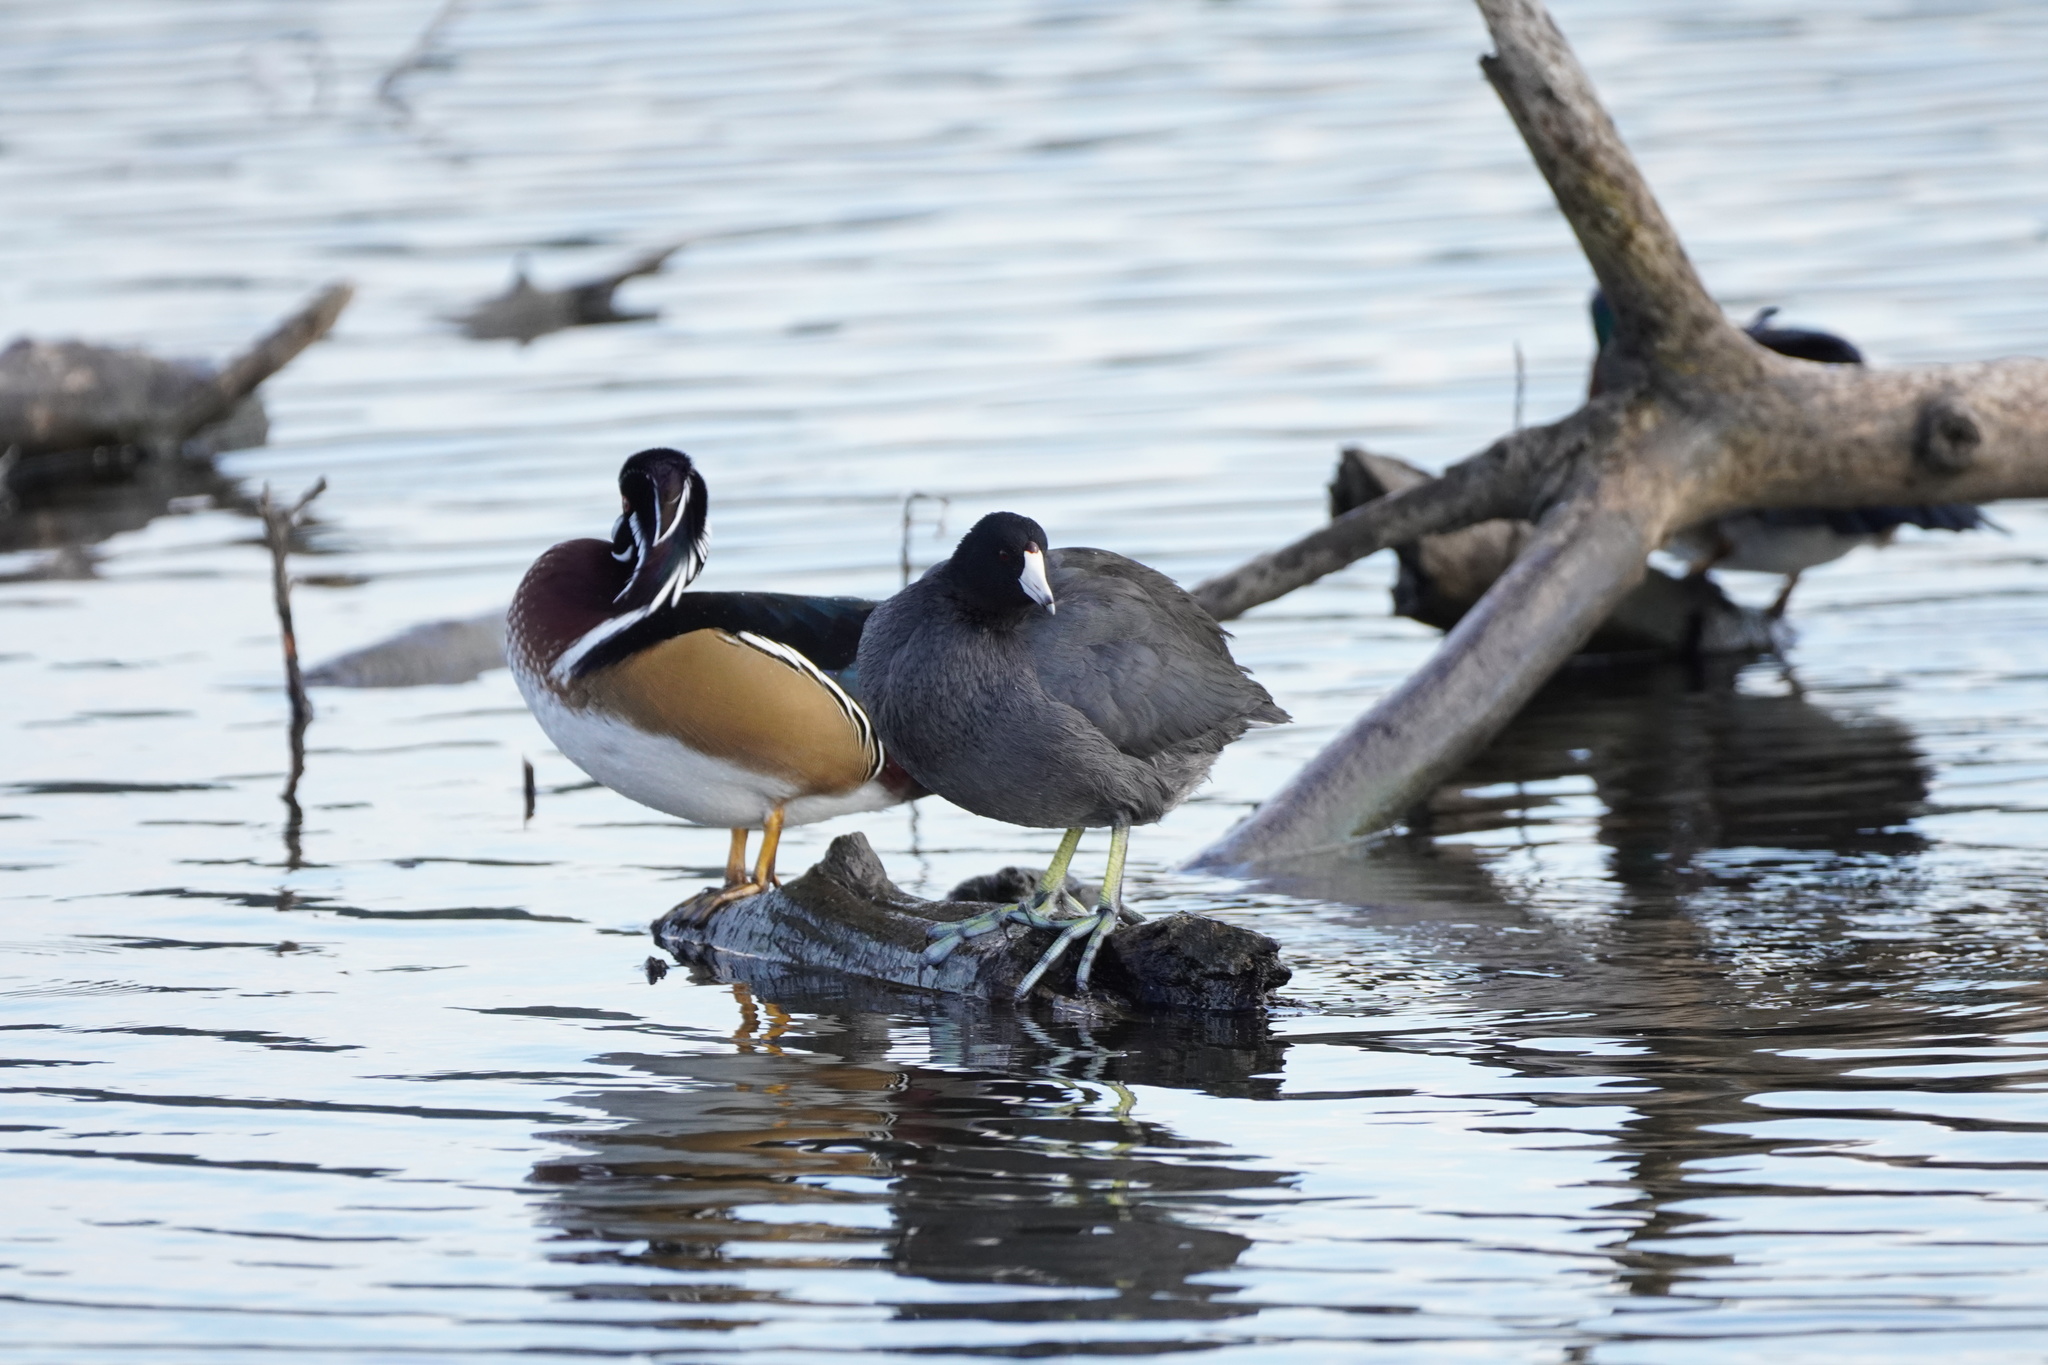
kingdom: Animalia
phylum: Chordata
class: Aves
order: Anseriformes
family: Anatidae
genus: Aix
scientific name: Aix sponsa
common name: Wood duck
